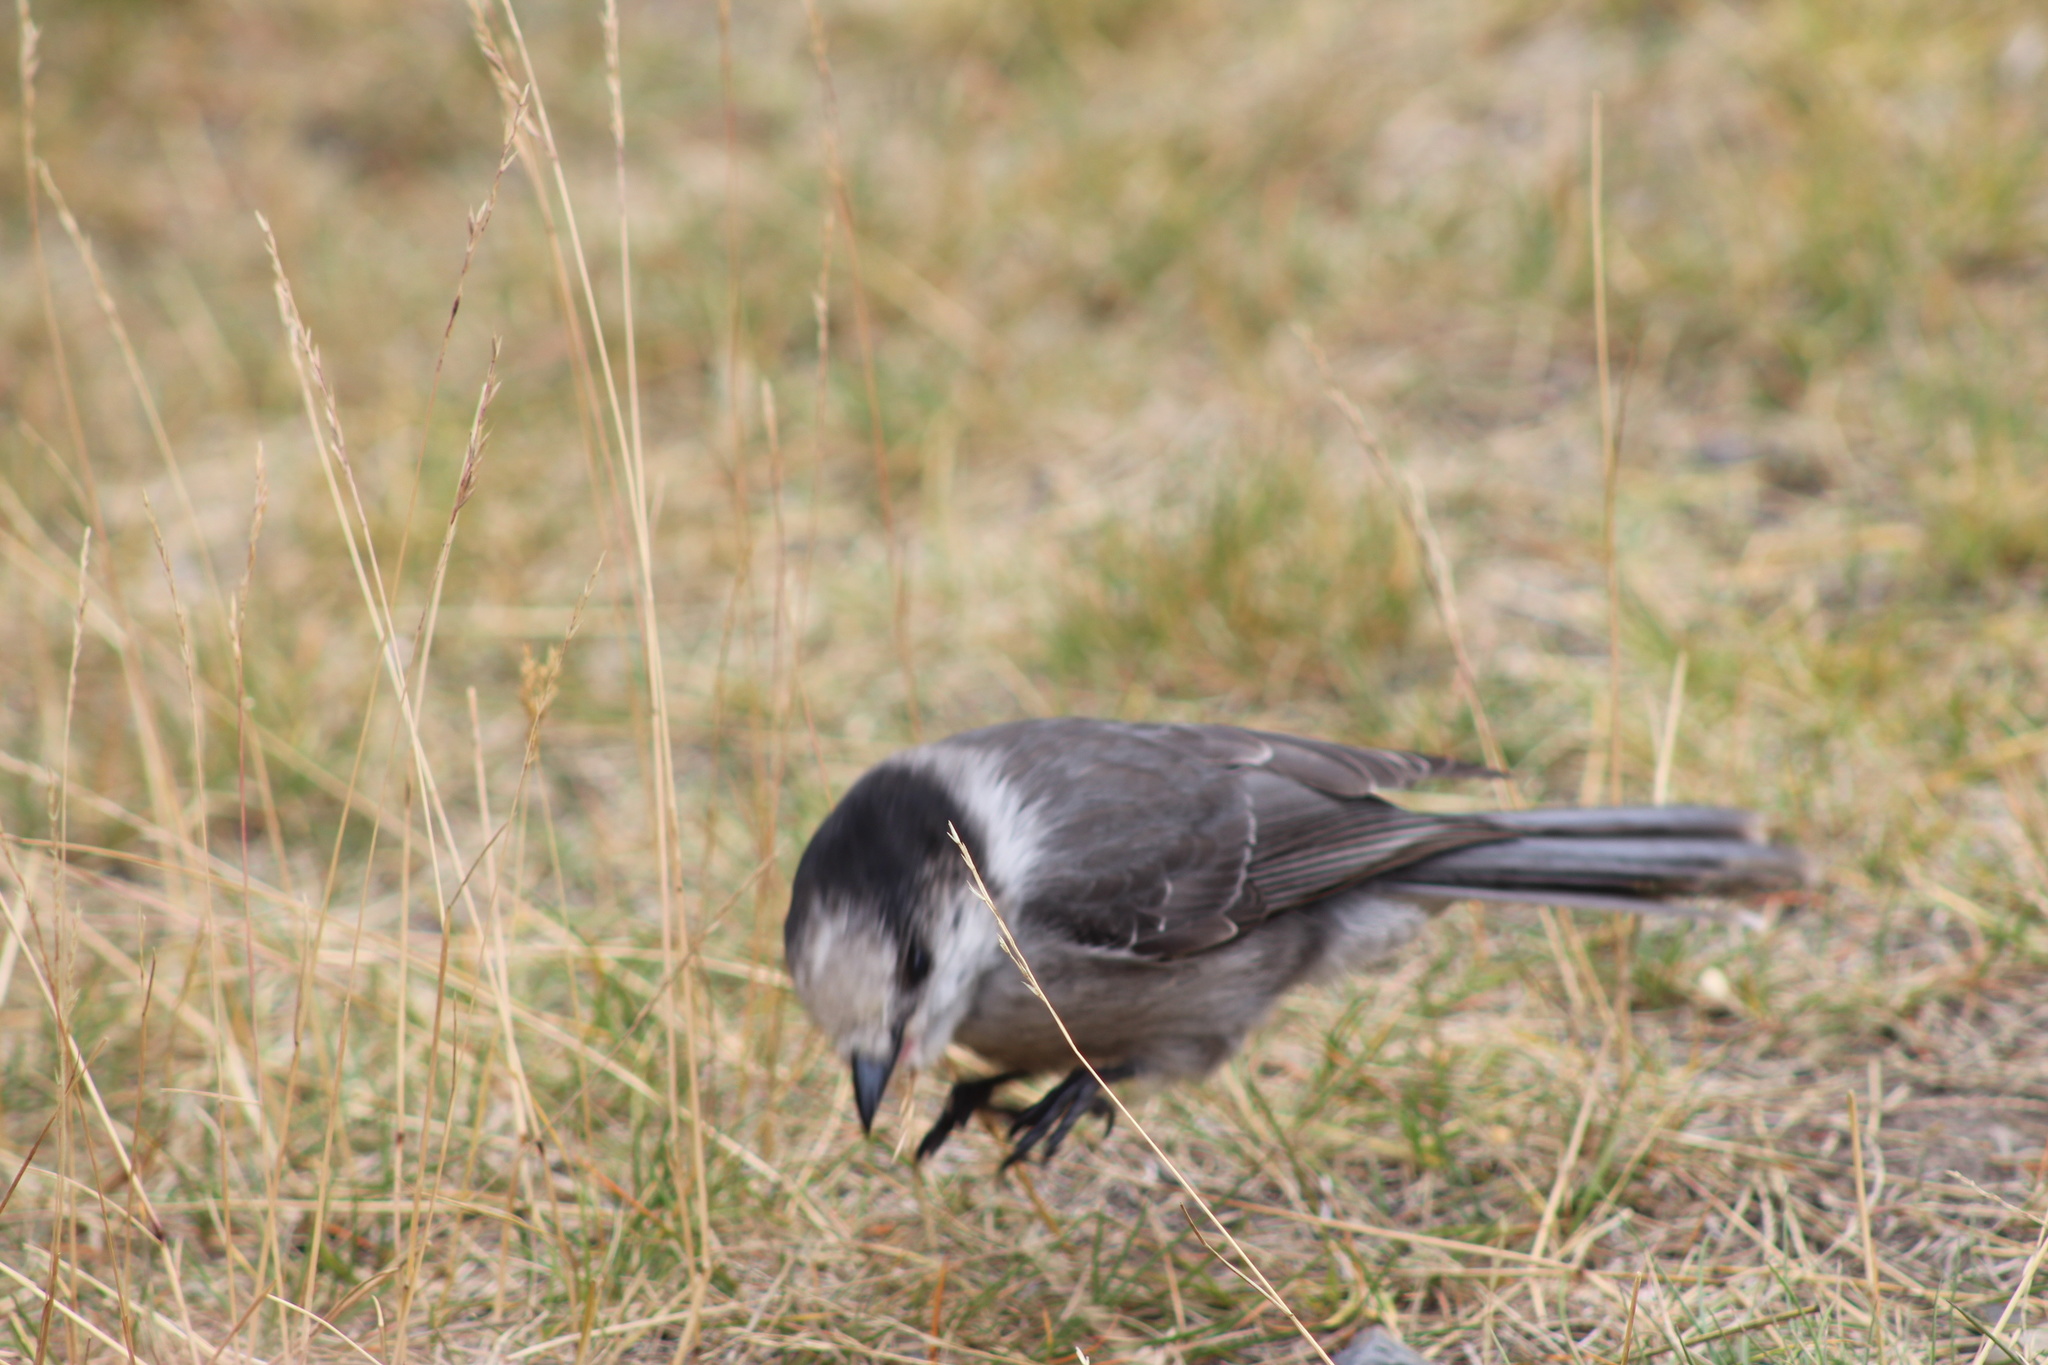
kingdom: Animalia
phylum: Chordata
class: Aves
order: Passeriformes
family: Corvidae
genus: Perisoreus
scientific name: Perisoreus canadensis
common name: Gray jay
